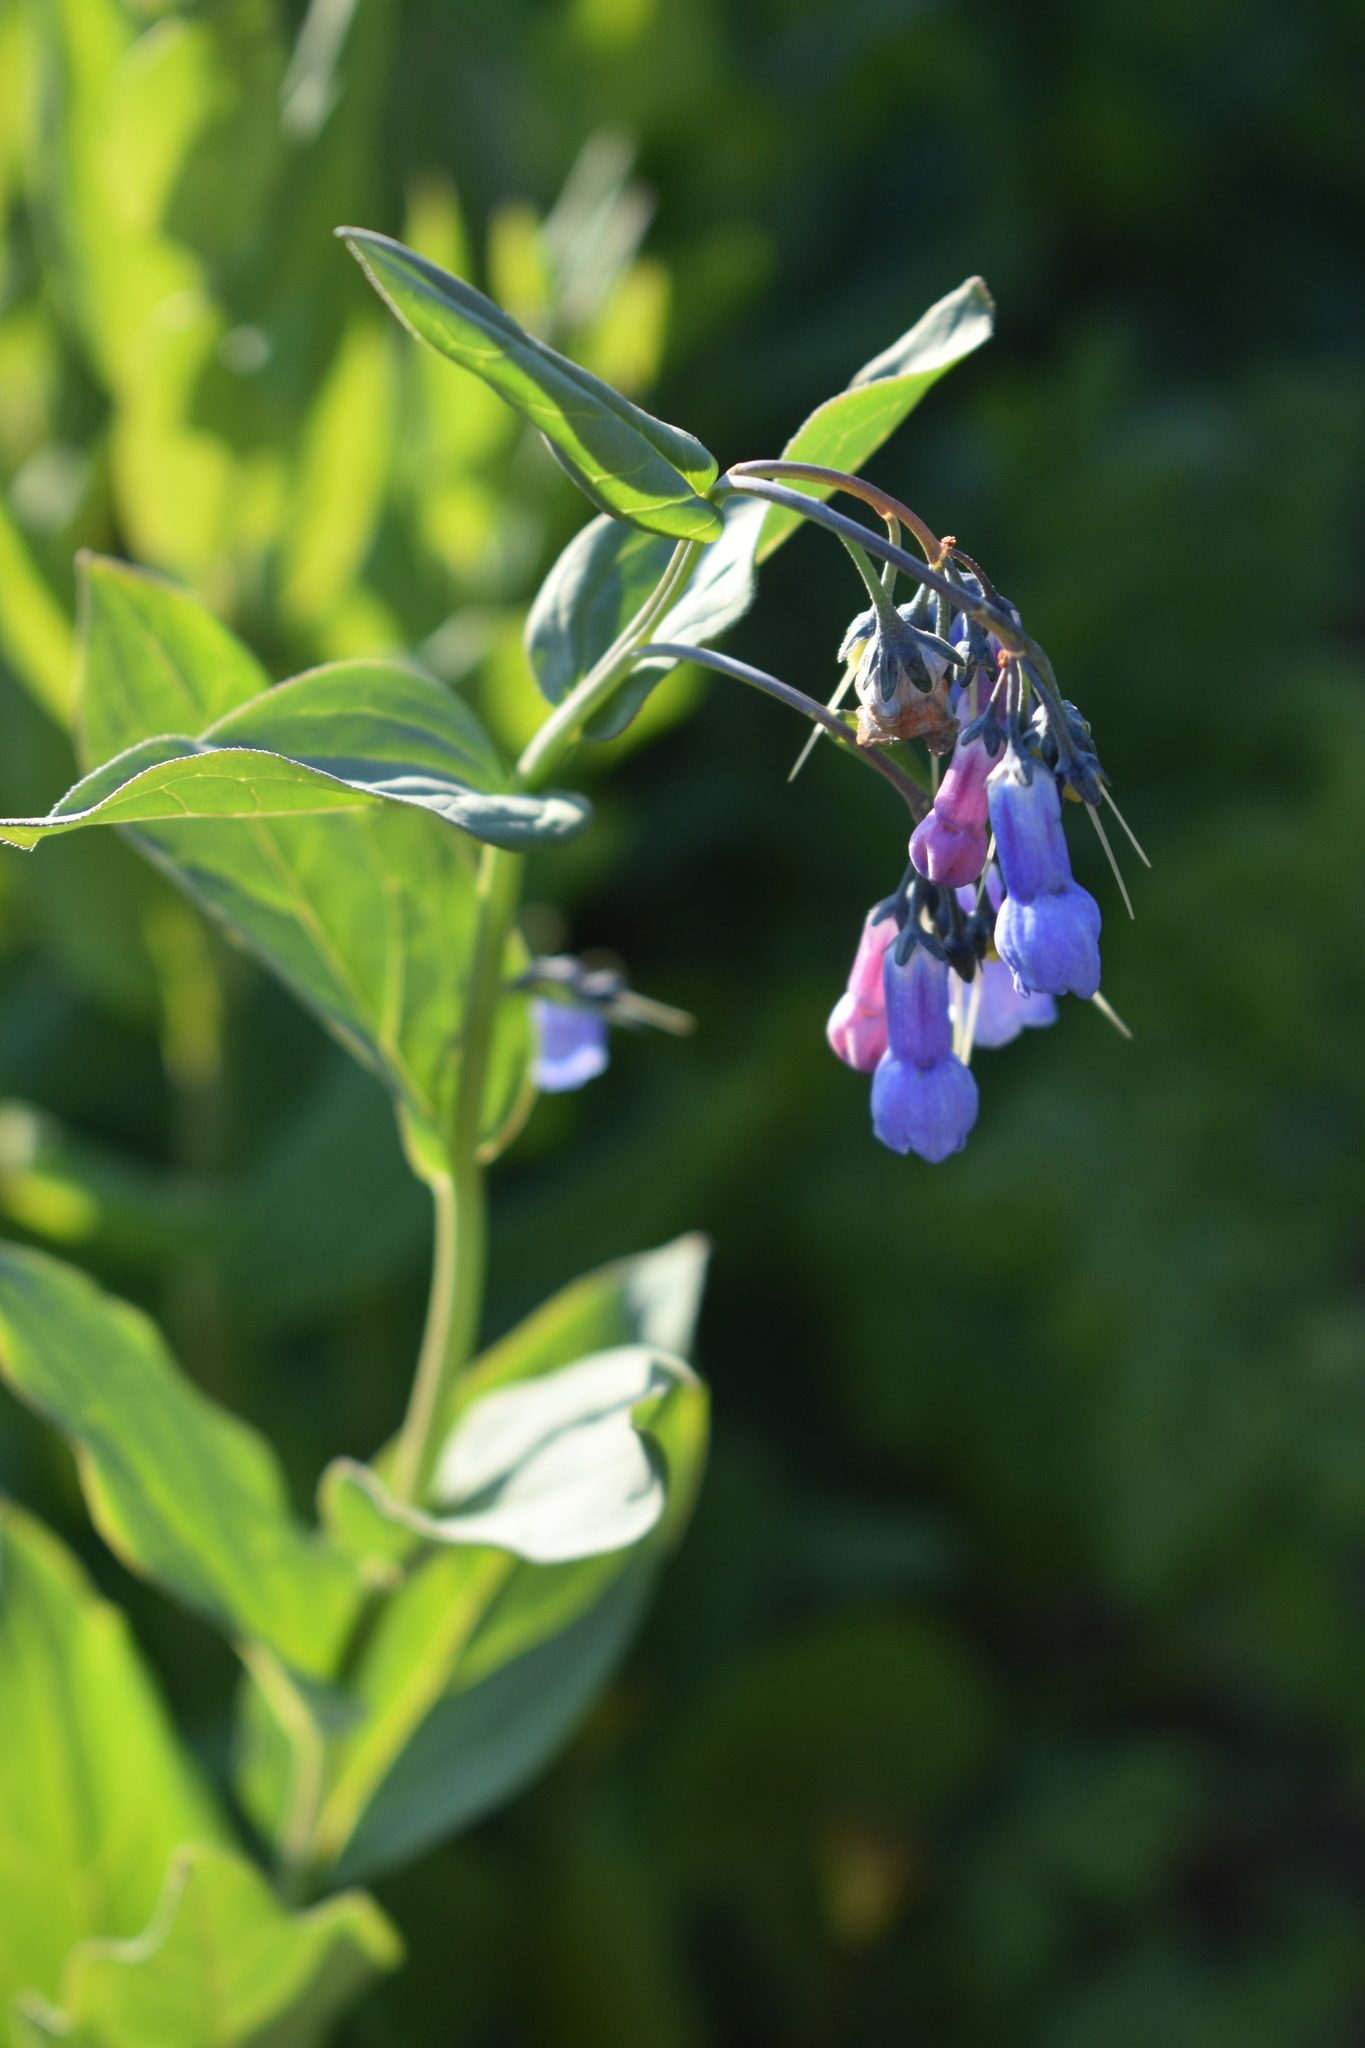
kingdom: Plantae
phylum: Tracheophyta
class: Magnoliopsida
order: Boraginales
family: Boraginaceae
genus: Mertensia
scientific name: Mertensia ciliata
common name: Tall chiming-bells
